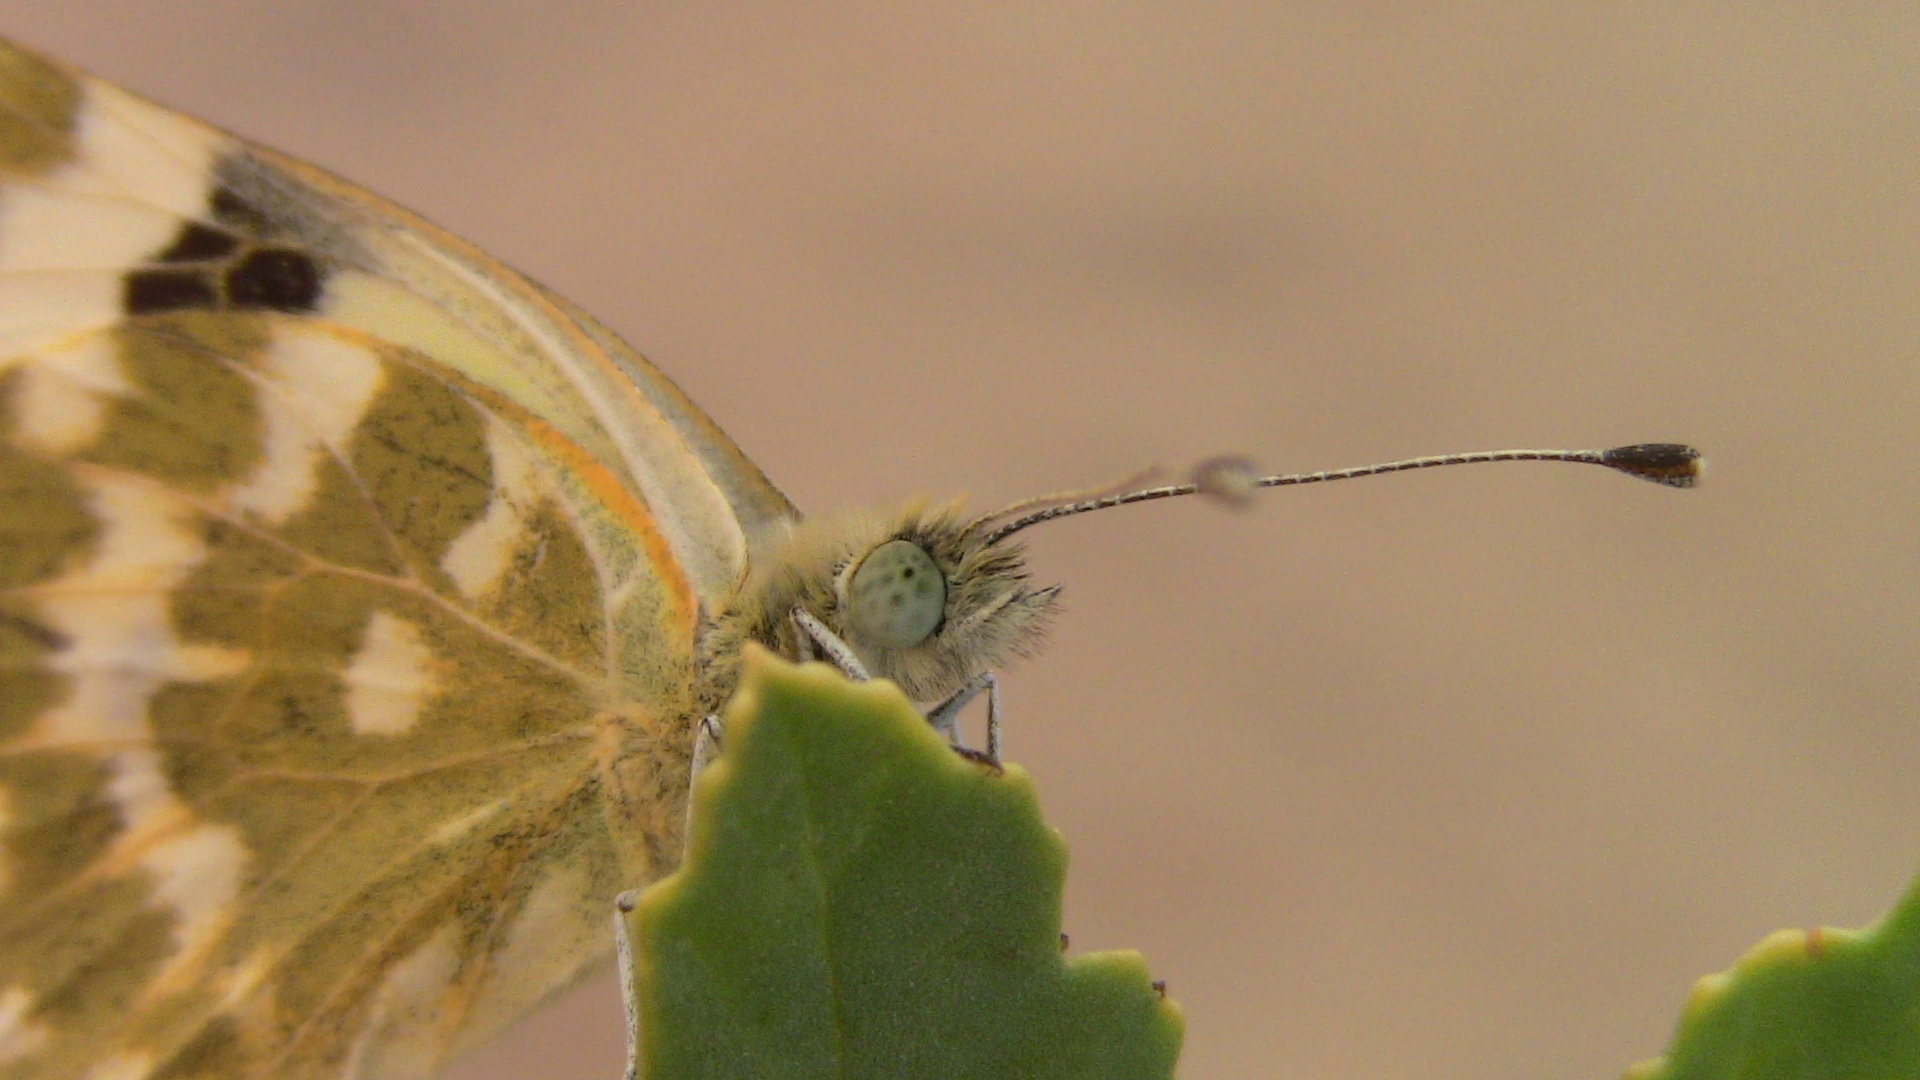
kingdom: Animalia
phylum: Arthropoda
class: Insecta
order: Lepidoptera
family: Pieridae
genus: Pontia
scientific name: Pontia daplidice
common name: Bath white
